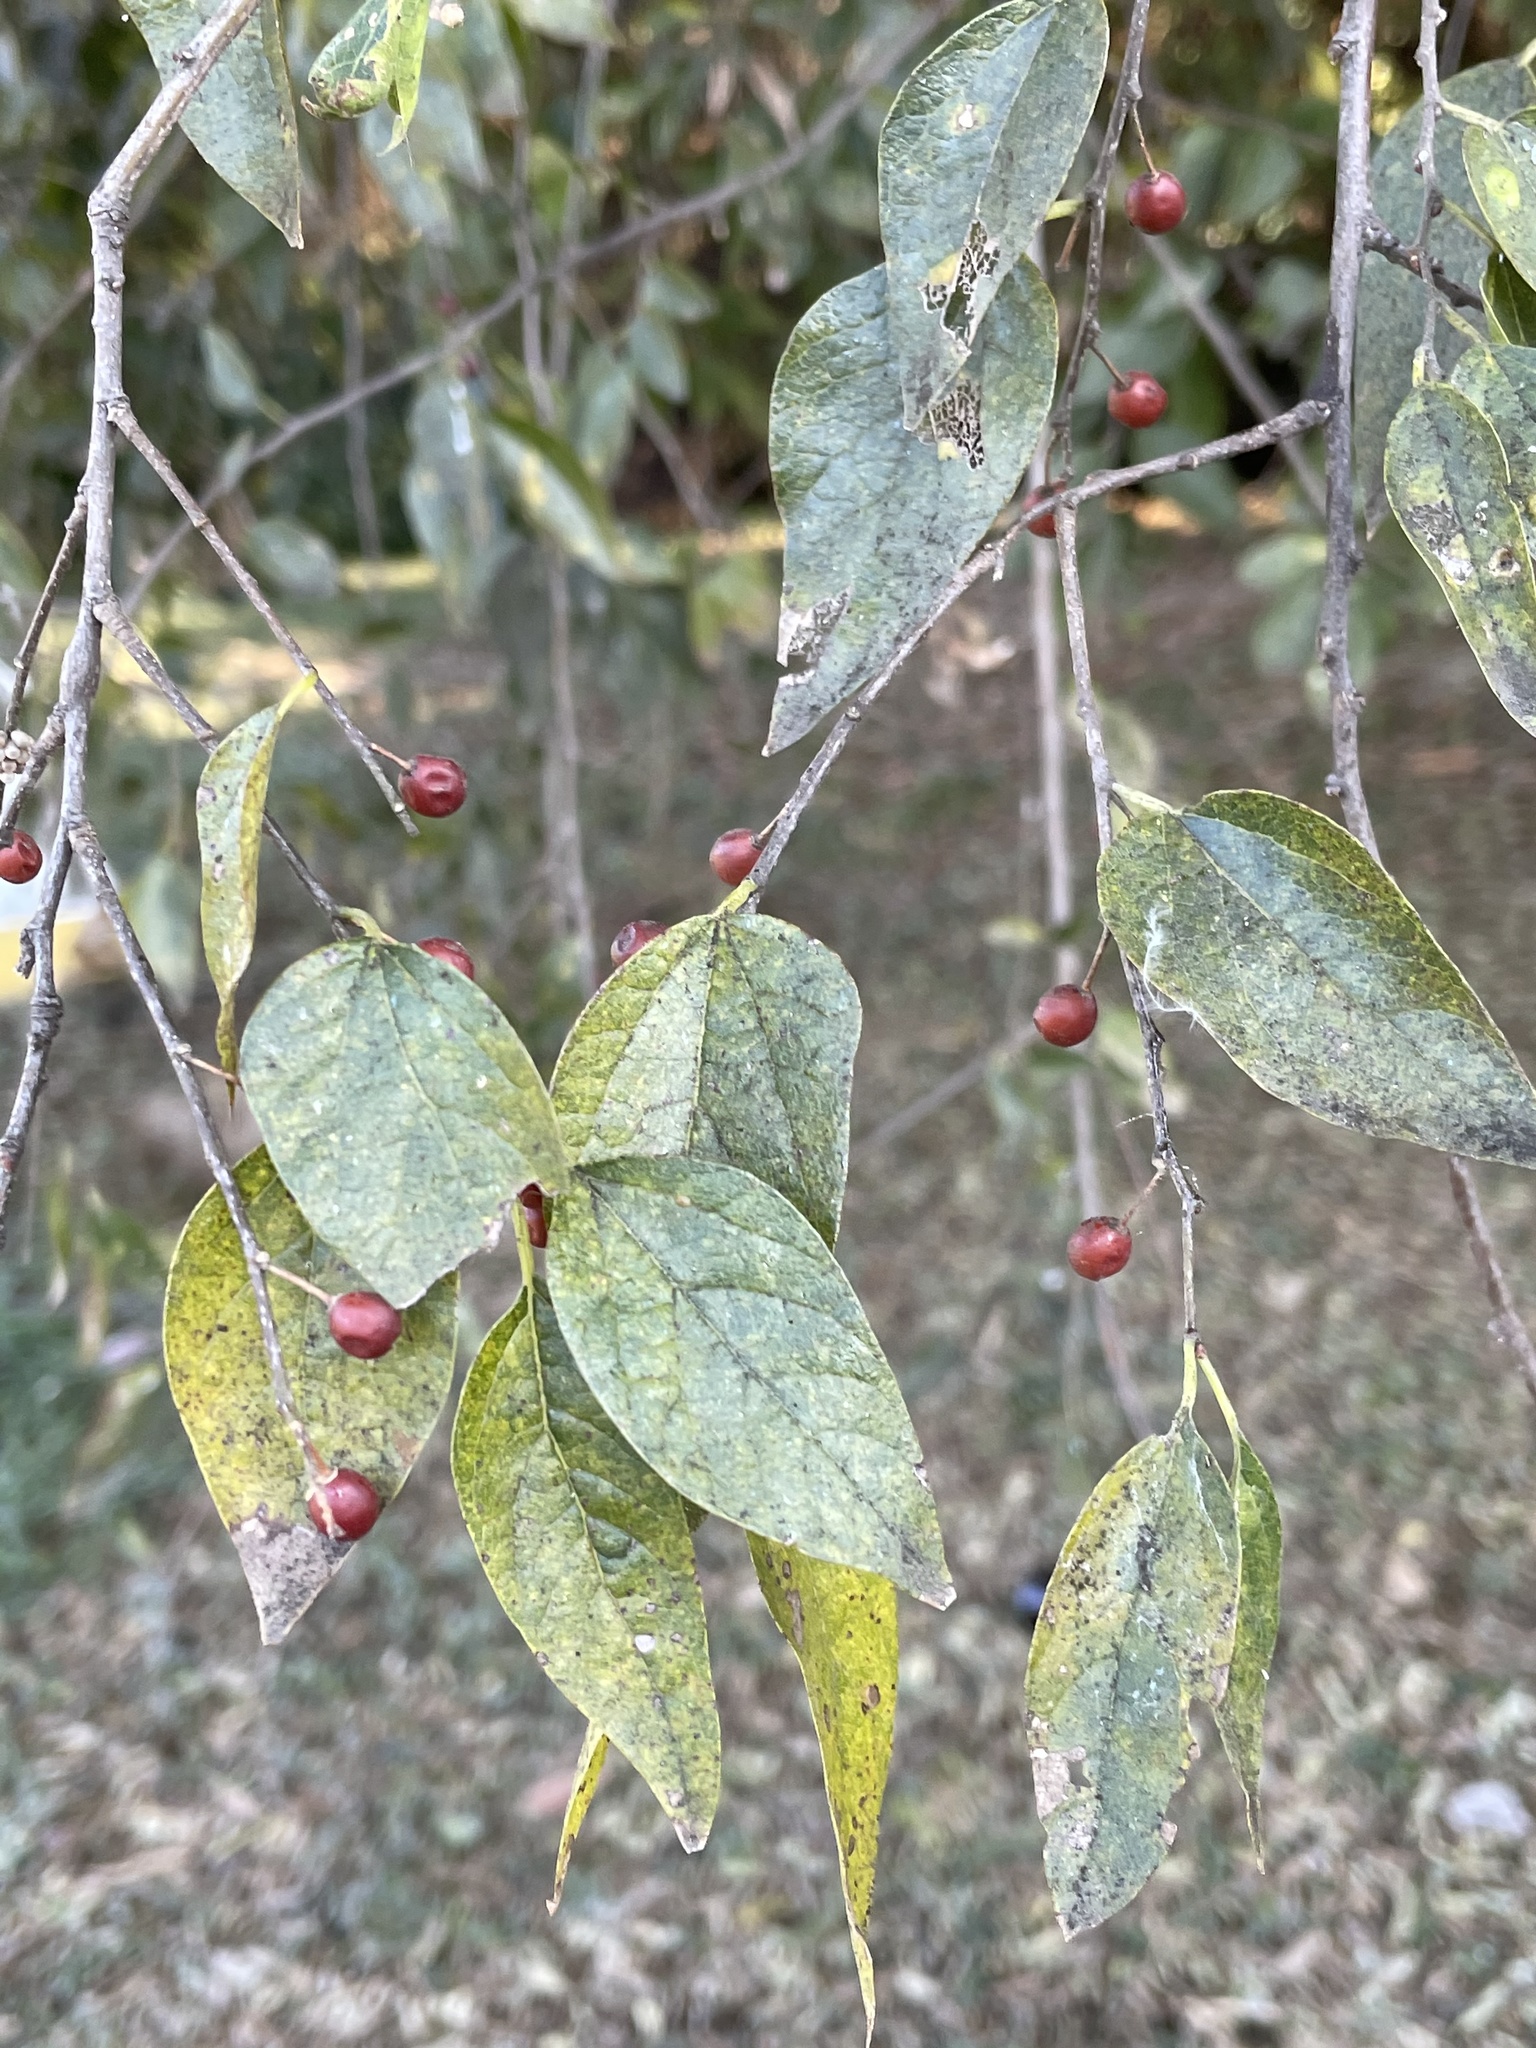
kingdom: Plantae
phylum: Tracheophyta
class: Magnoliopsida
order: Rosales
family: Cannabaceae
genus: Celtis
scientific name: Celtis laevigata
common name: Sugarberry
